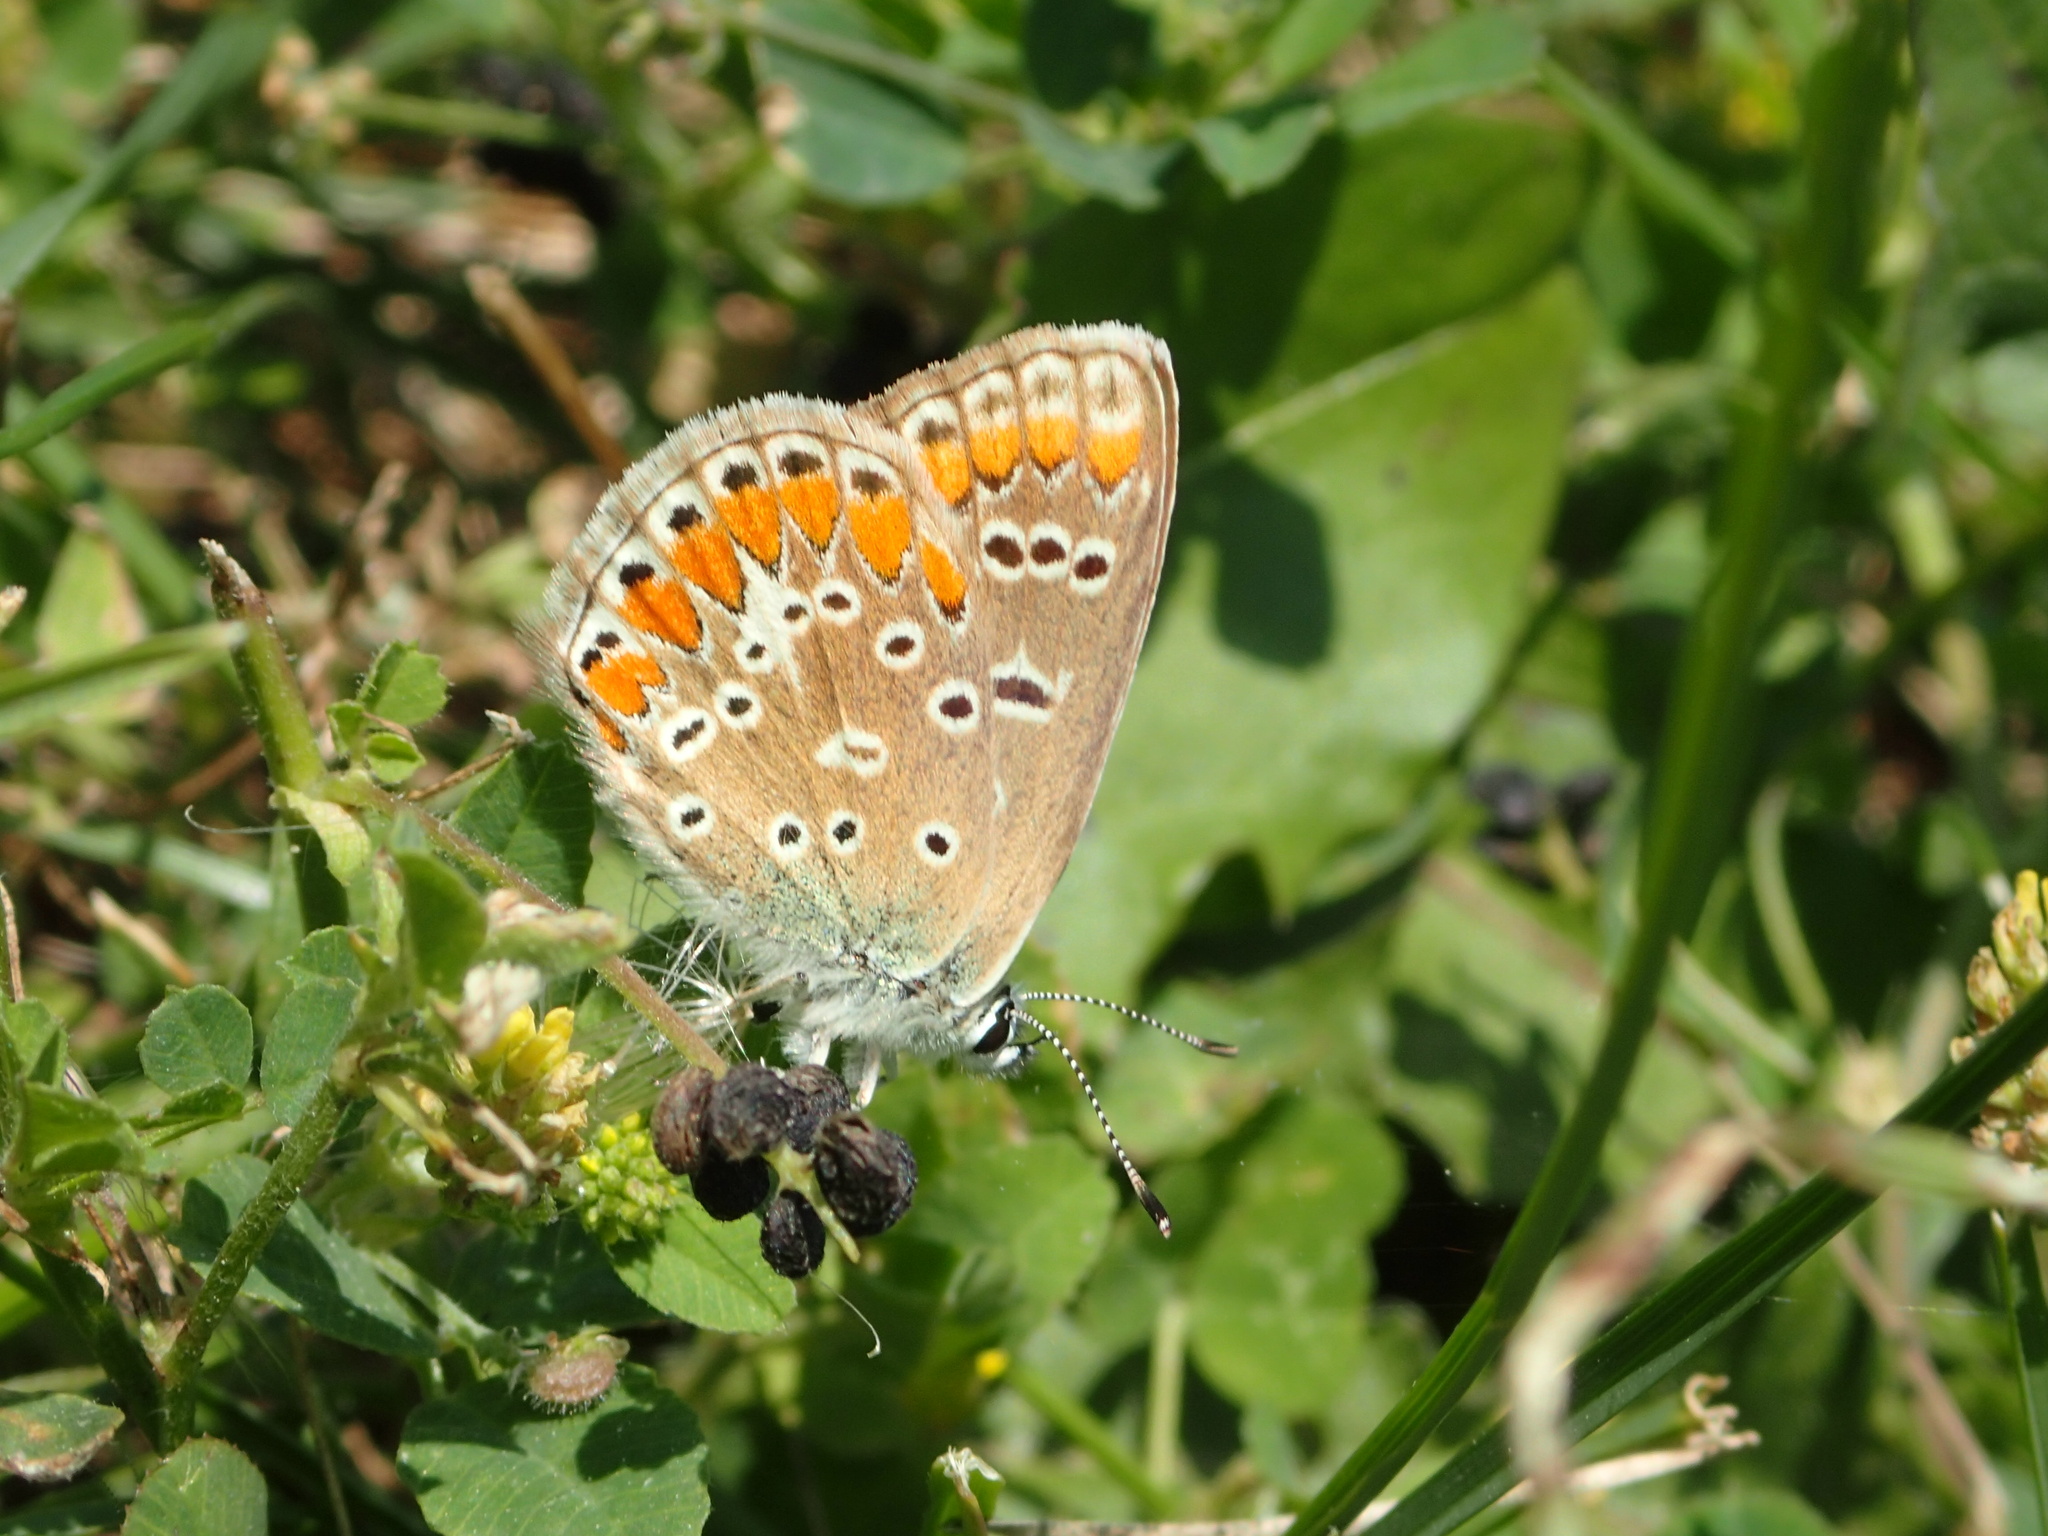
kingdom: Animalia
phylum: Arthropoda
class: Insecta
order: Lepidoptera
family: Lycaenidae
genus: Polyommatus
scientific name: Polyommatus icarus
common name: Common blue
